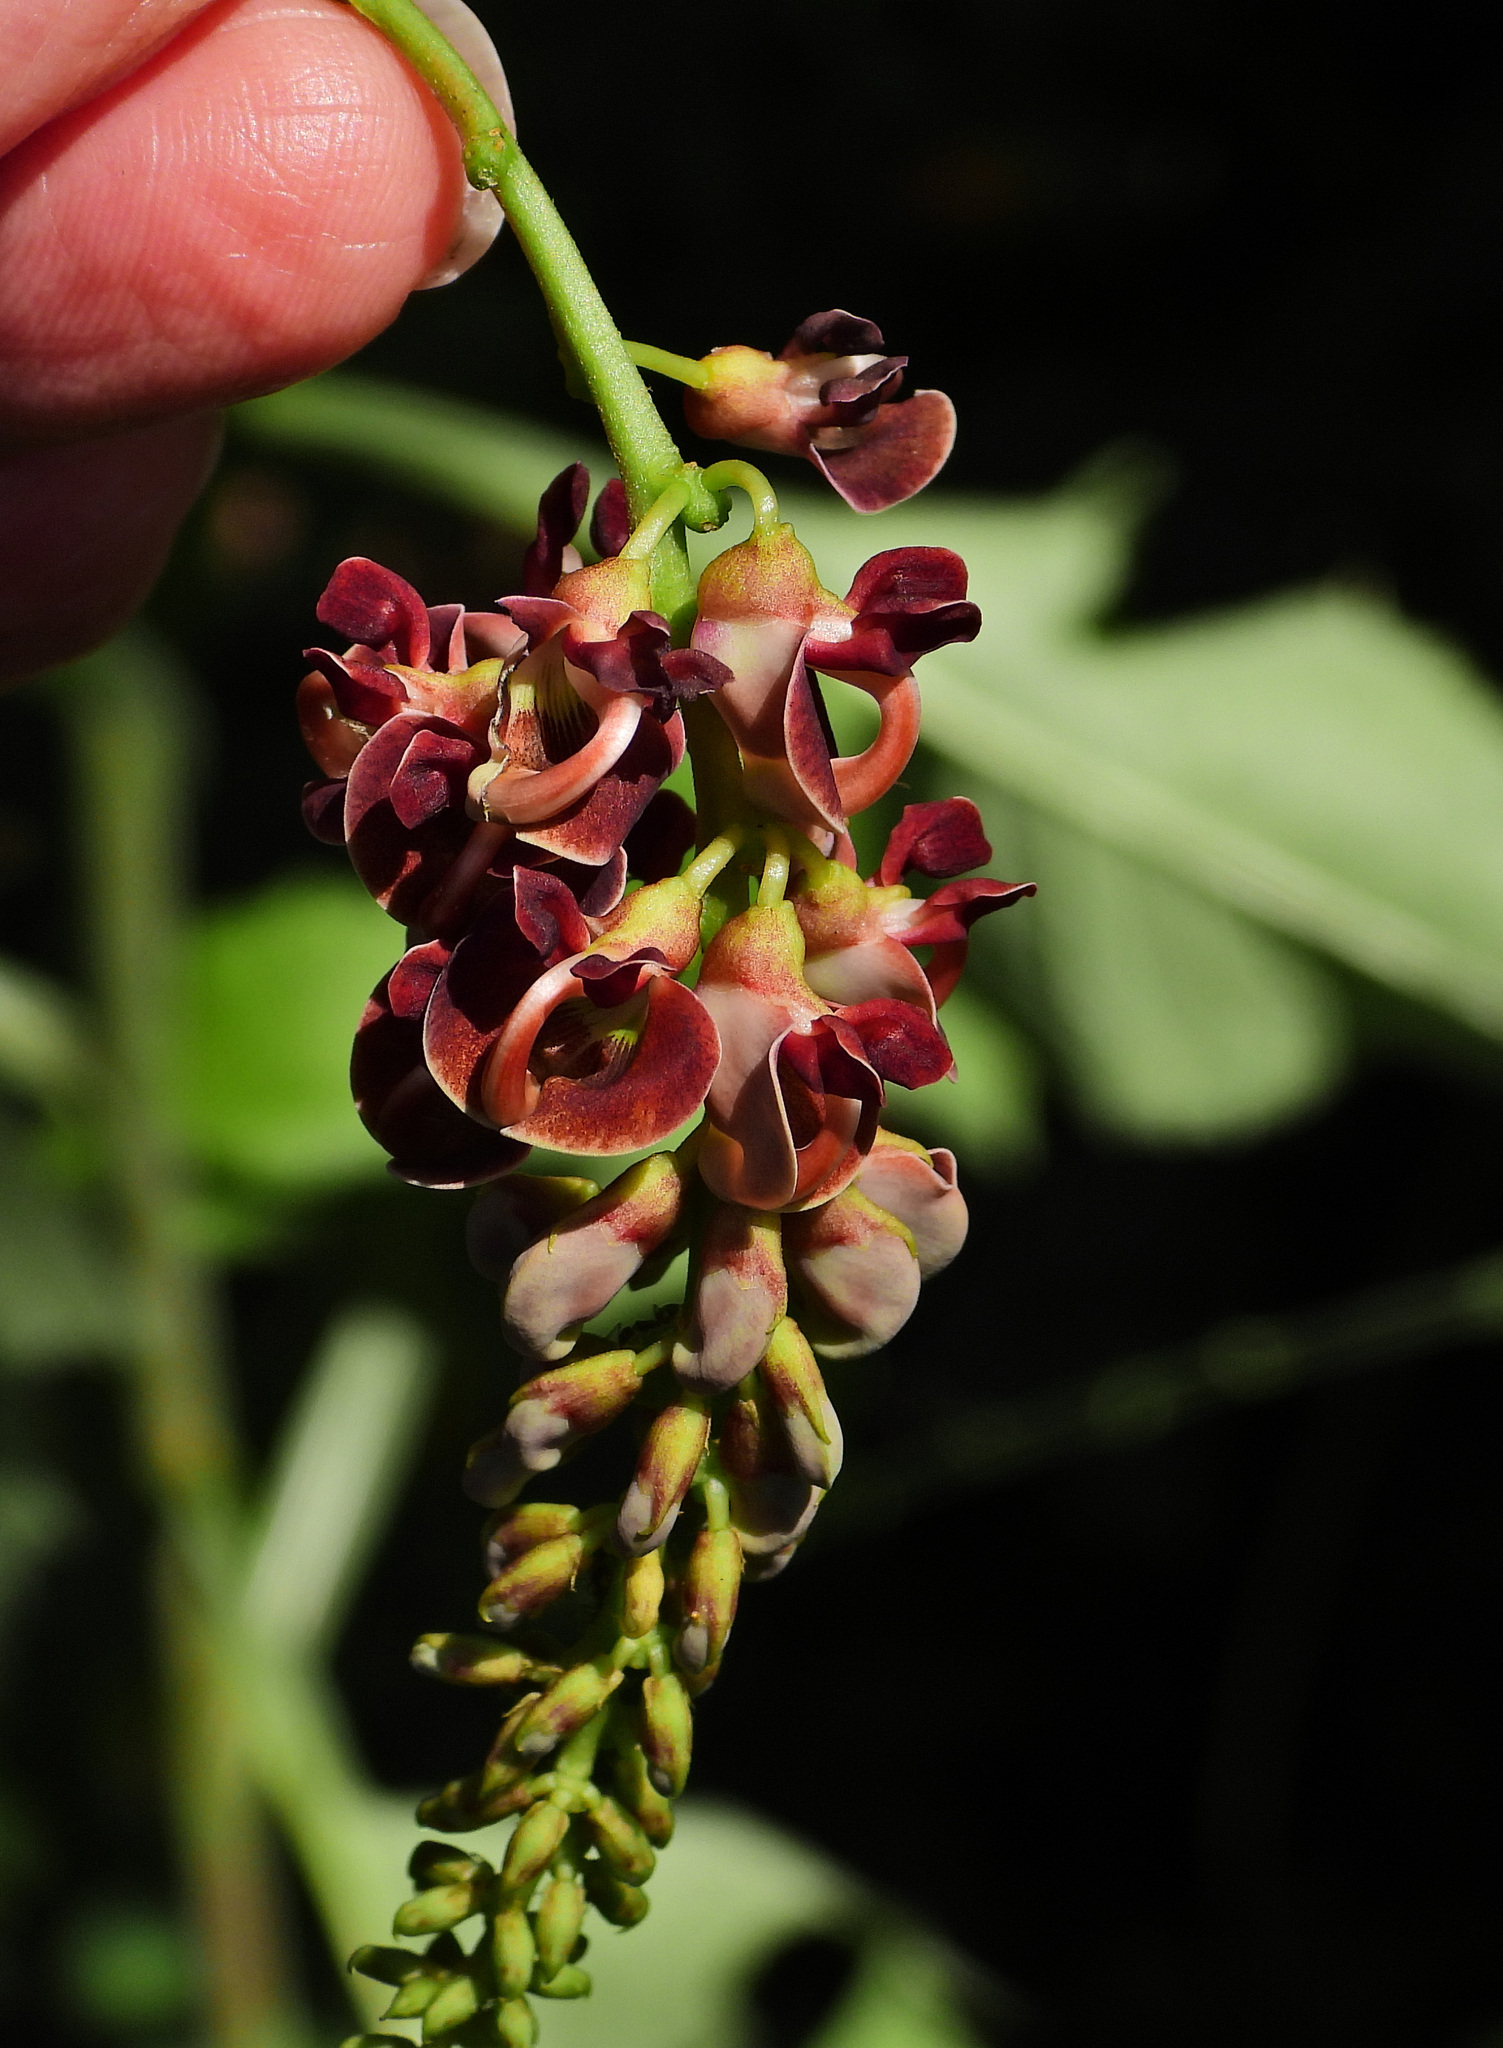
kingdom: Plantae
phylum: Tracheophyta
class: Magnoliopsida
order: Fabales
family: Fabaceae
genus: Apios
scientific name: Apios americana
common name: American potato-bean
